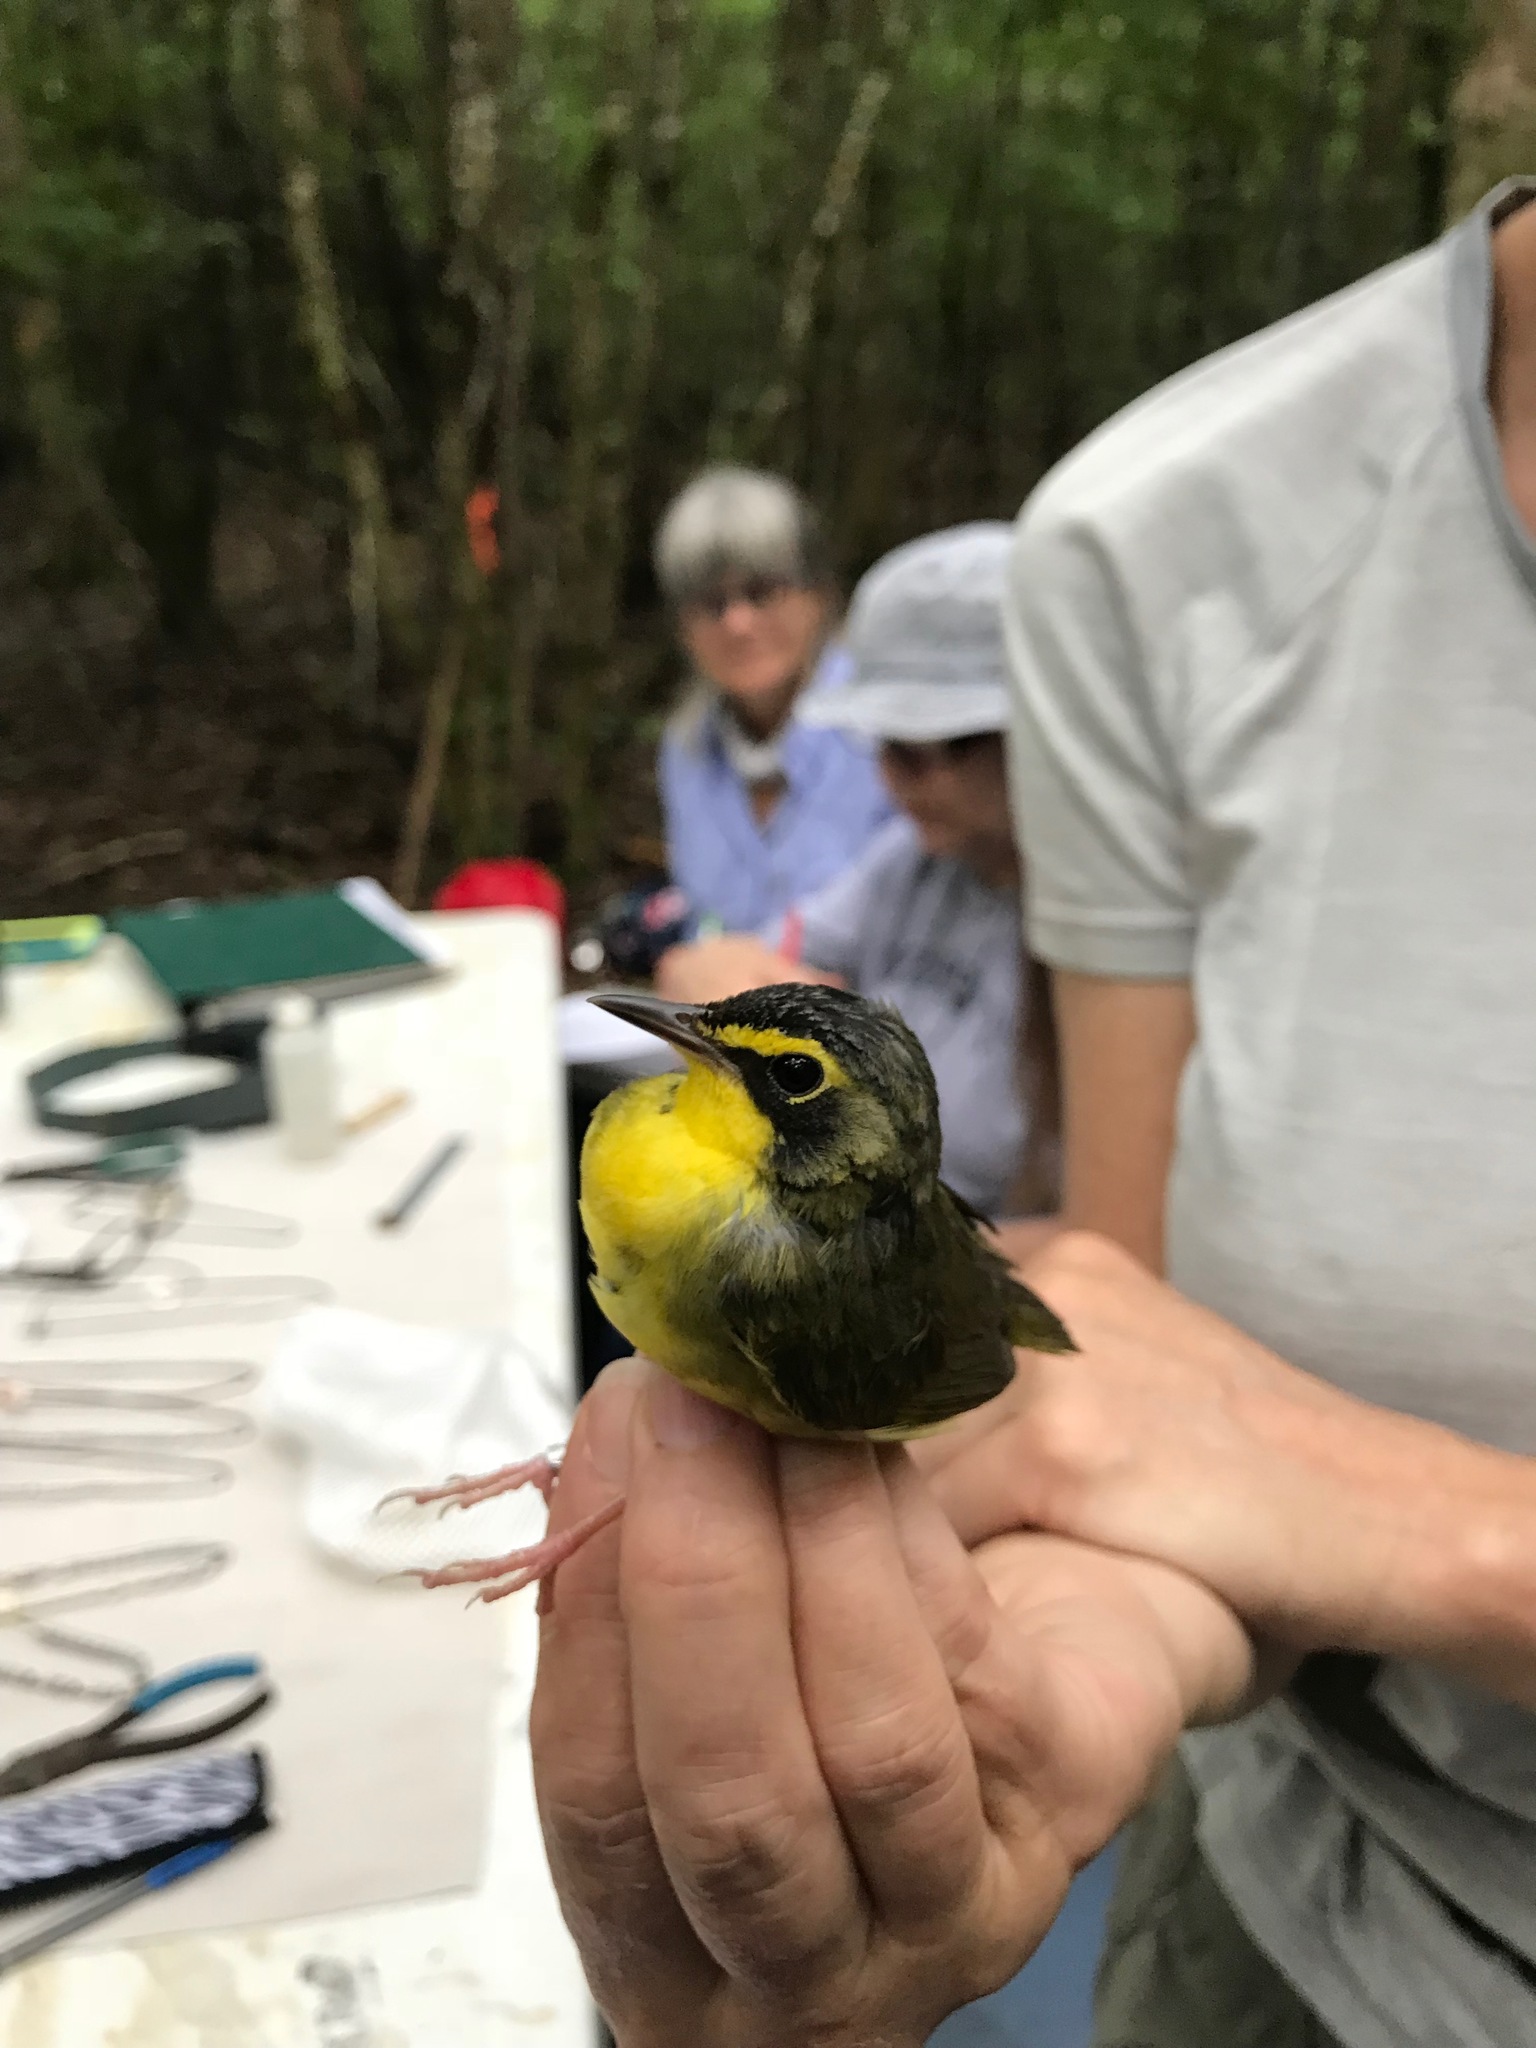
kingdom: Animalia
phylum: Chordata
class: Aves
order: Passeriformes
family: Parulidae
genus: Geothlypis
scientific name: Geothlypis formosa
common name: Kentucky warbler
